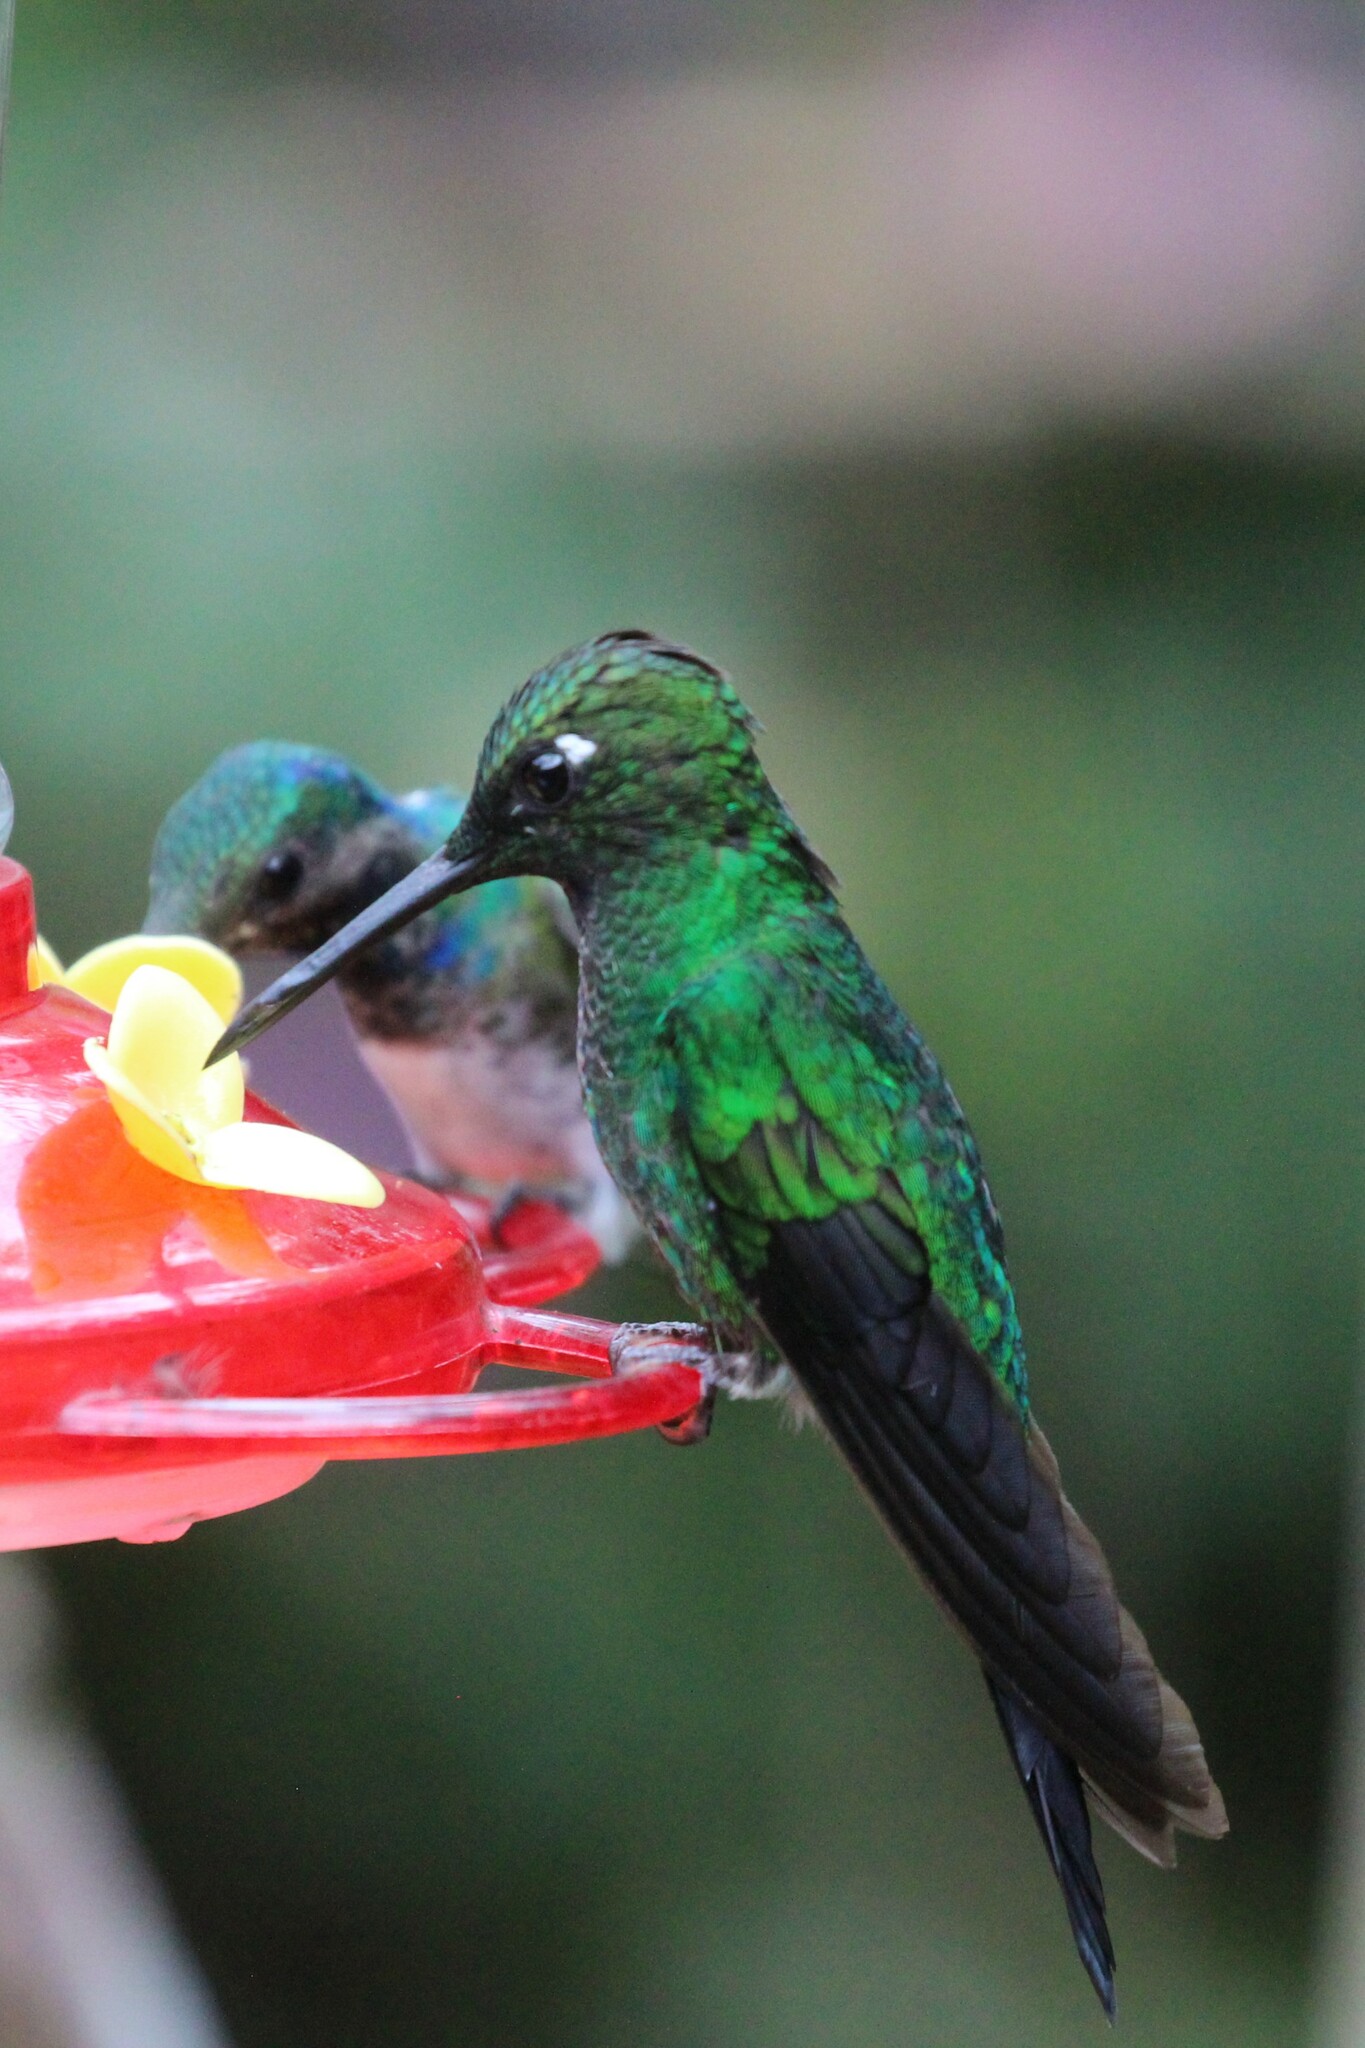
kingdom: Animalia
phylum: Chordata
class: Aves
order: Apodiformes
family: Trochilidae
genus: Heliodoxa
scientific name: Heliodoxa jacula
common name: Green-crowned brilliant
